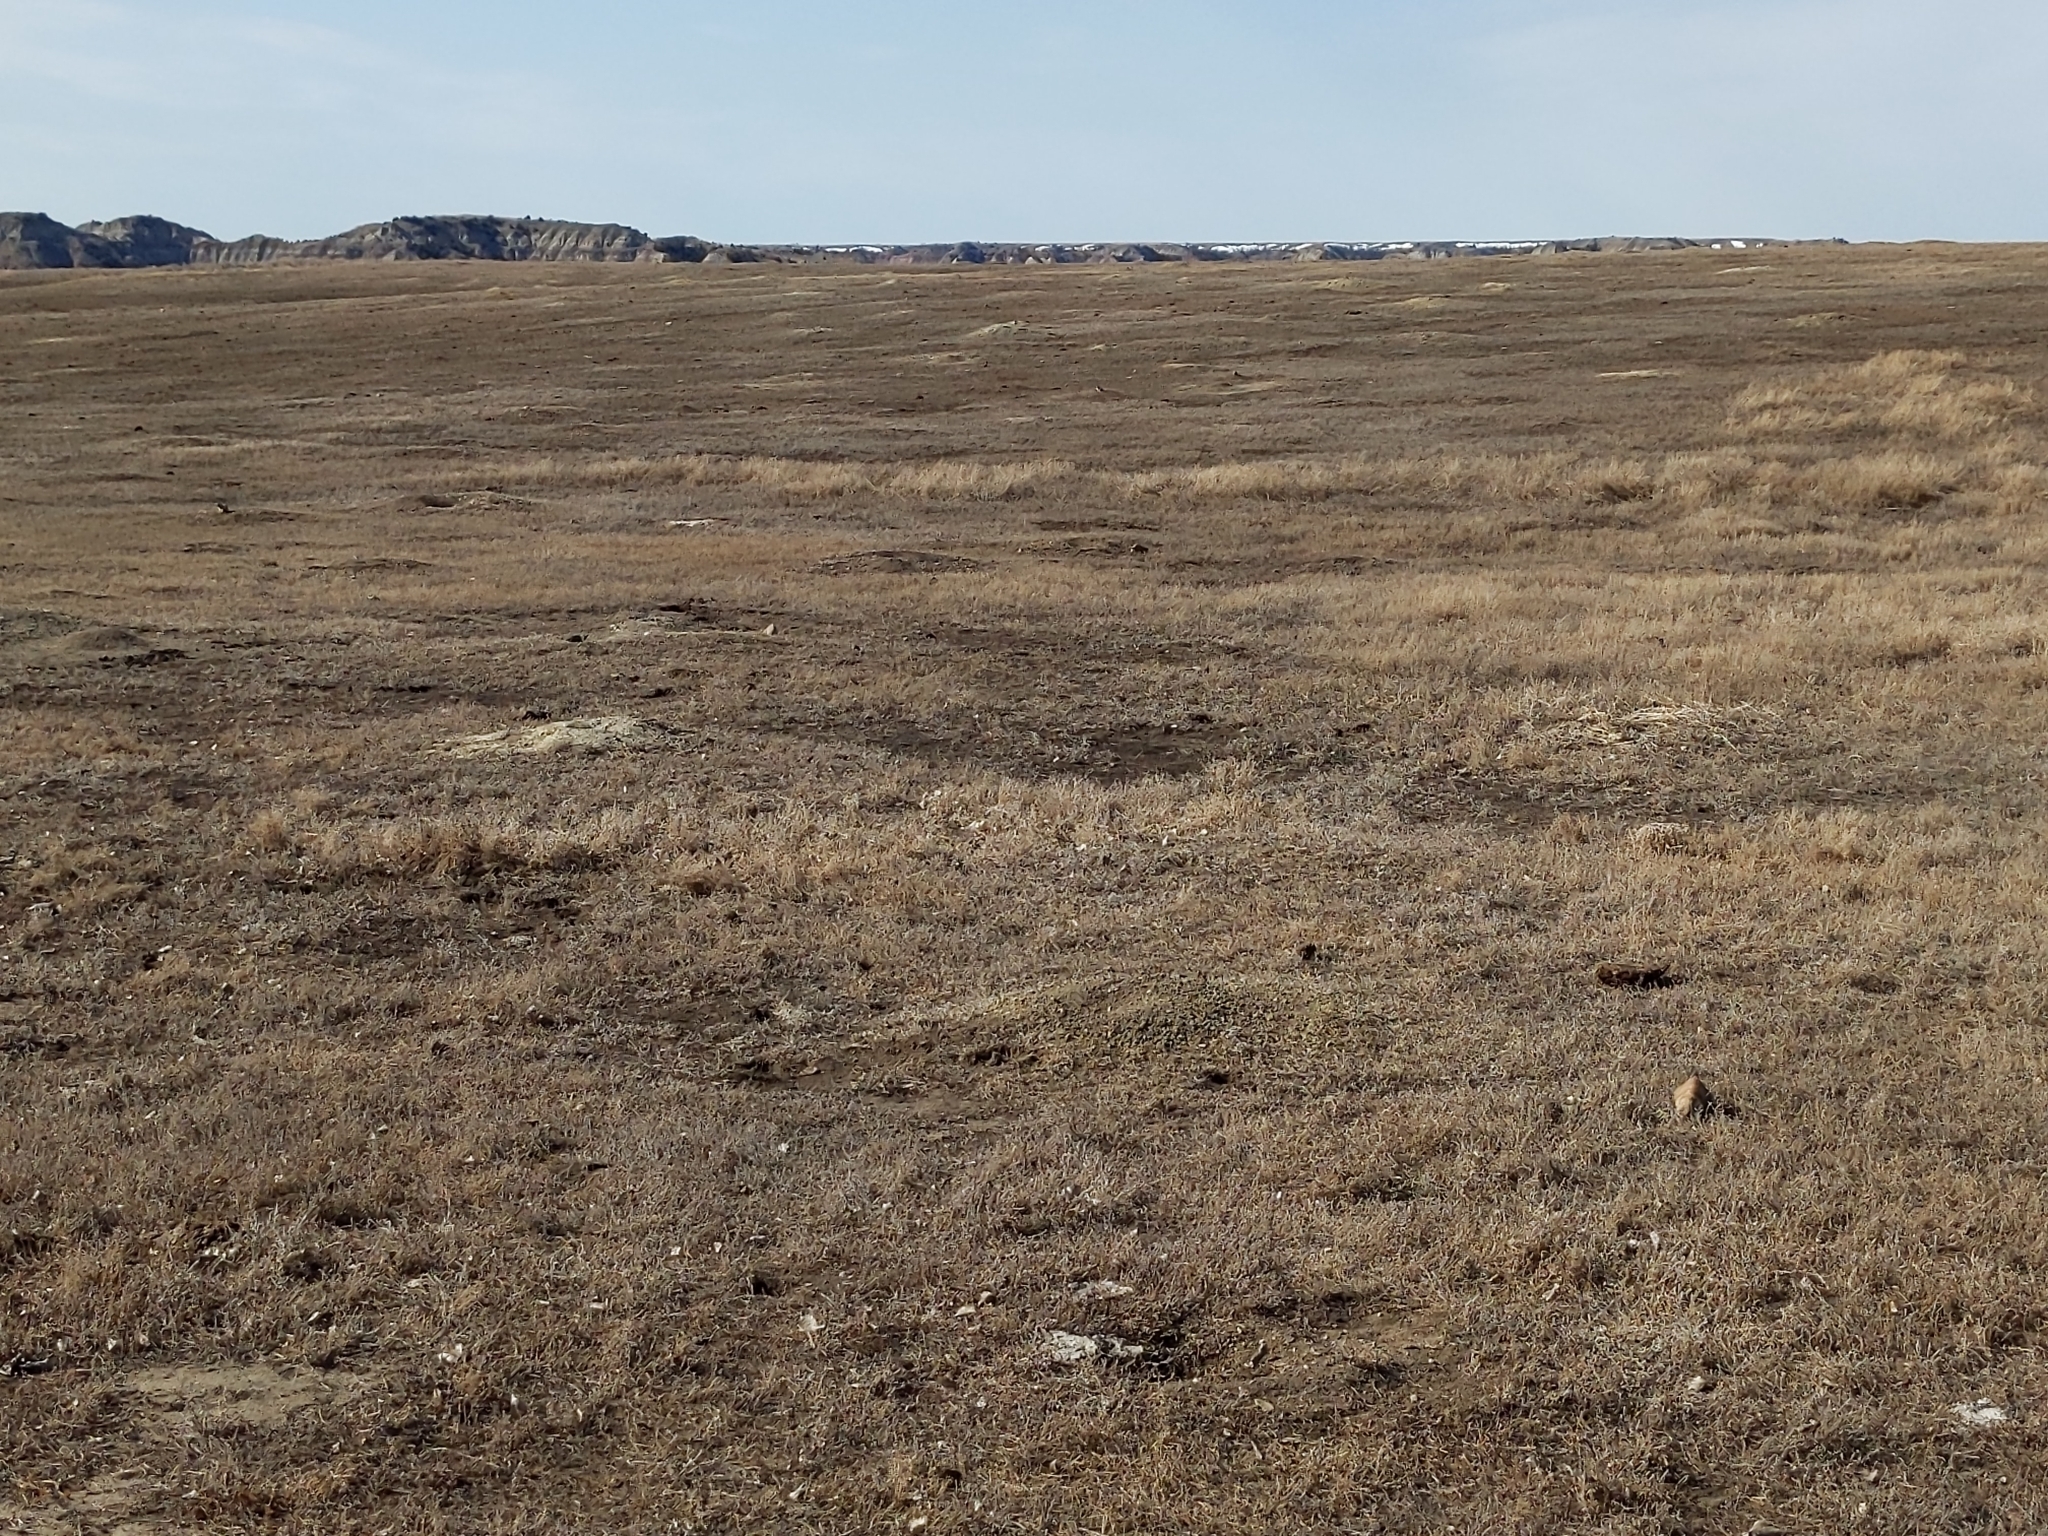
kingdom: Animalia
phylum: Chordata
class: Mammalia
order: Rodentia
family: Sciuridae
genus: Cynomys
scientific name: Cynomys ludovicianus
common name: Black-tailed prairie dog
